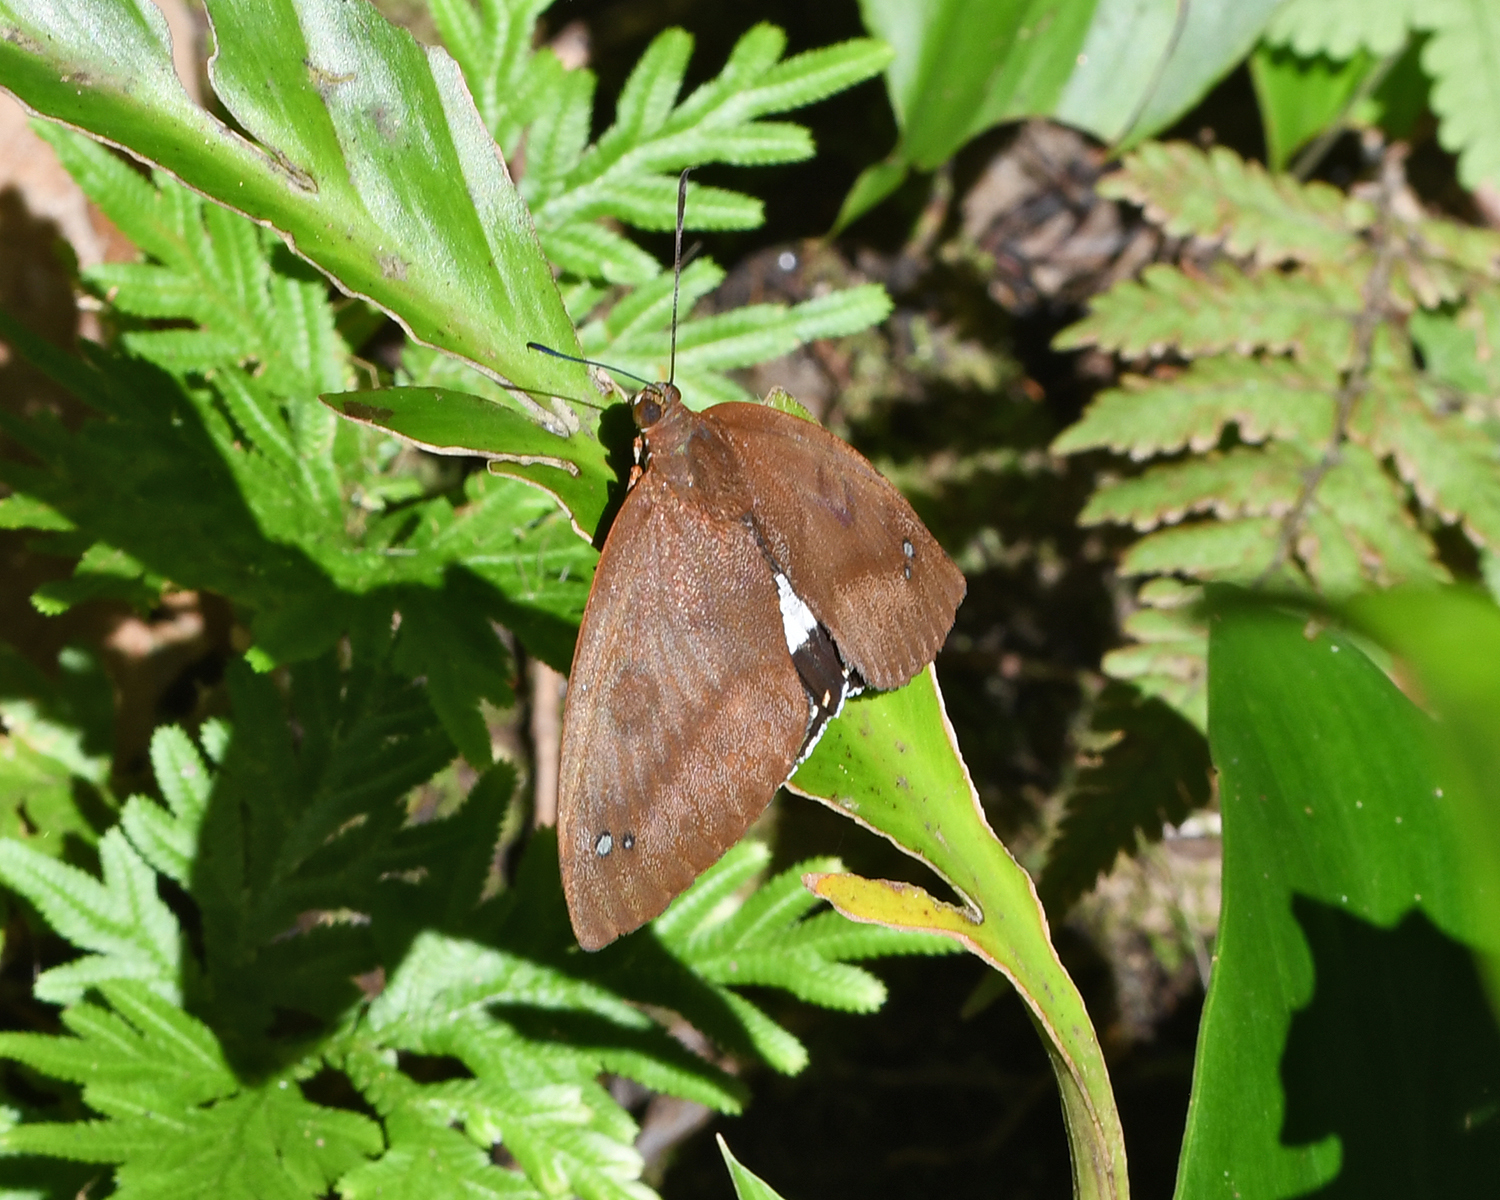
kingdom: Animalia
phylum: Arthropoda
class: Insecta
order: Lepidoptera
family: Castniidae
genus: Athis
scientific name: Athis palatinus
